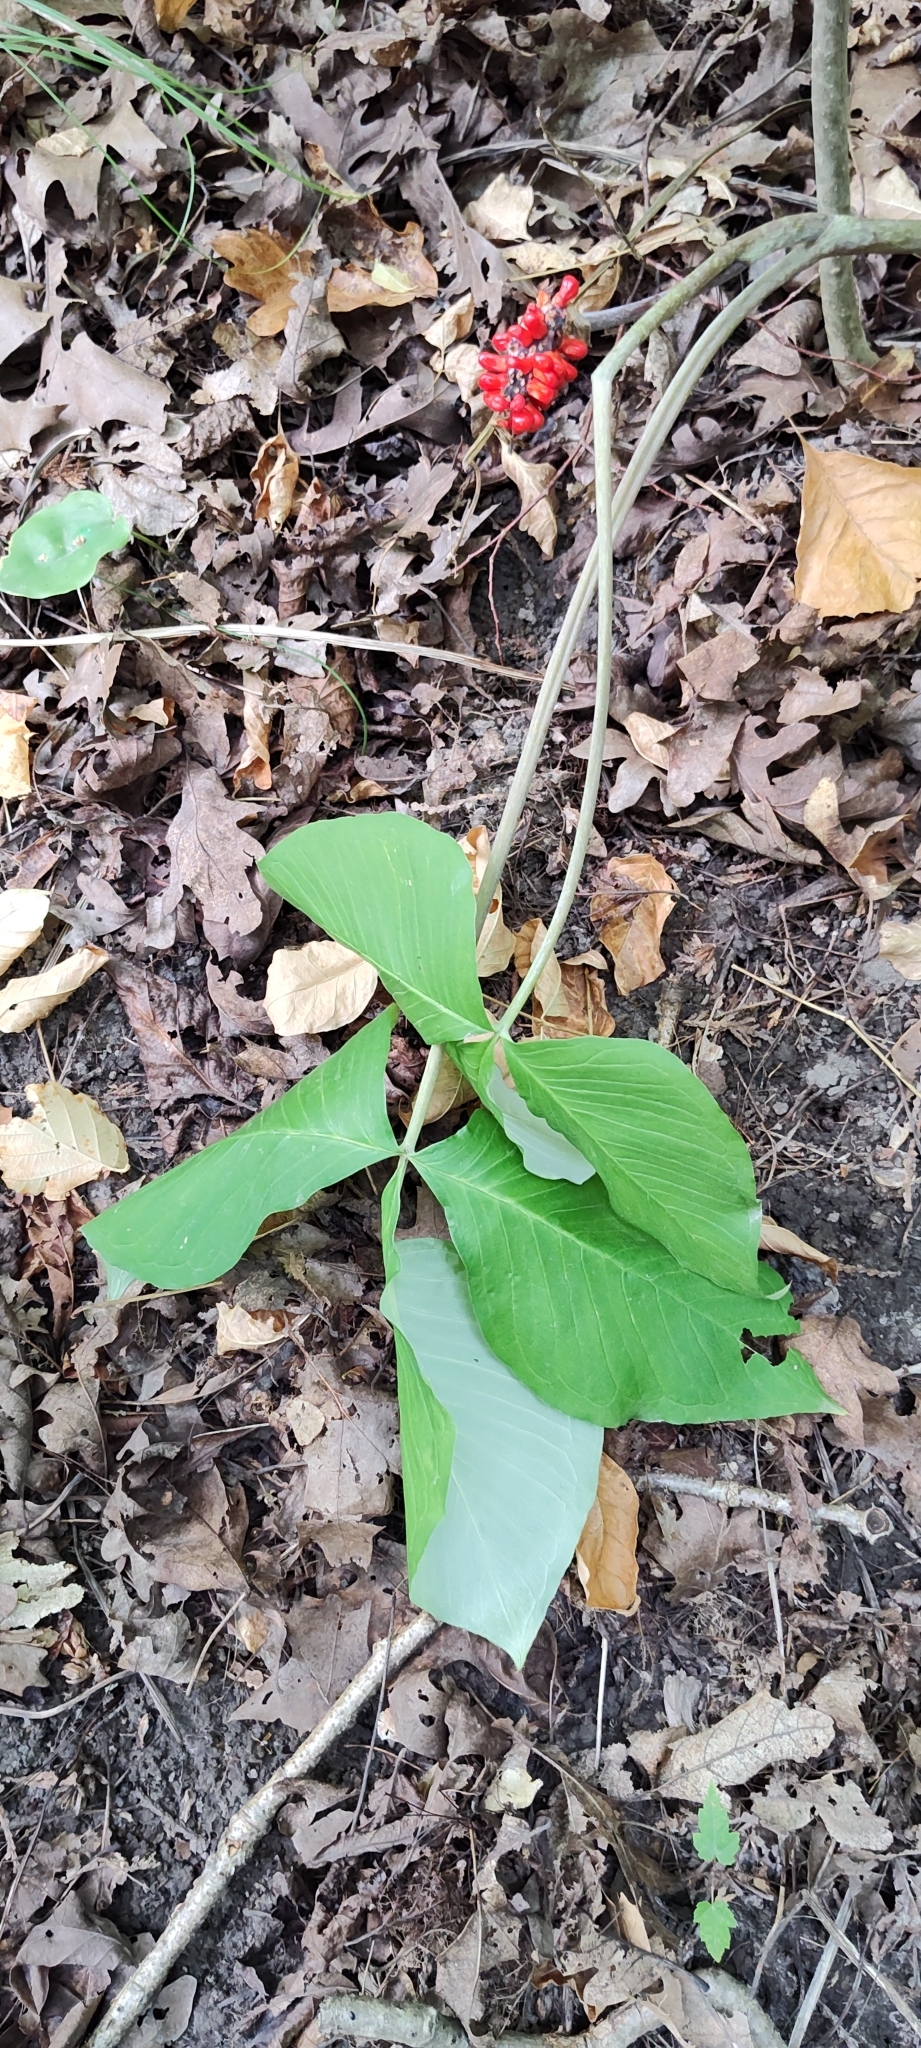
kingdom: Plantae
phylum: Tracheophyta
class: Liliopsida
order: Alismatales
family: Araceae
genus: Arisaema
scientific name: Arisaema triphyllum
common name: Jack-in-the-pulpit
